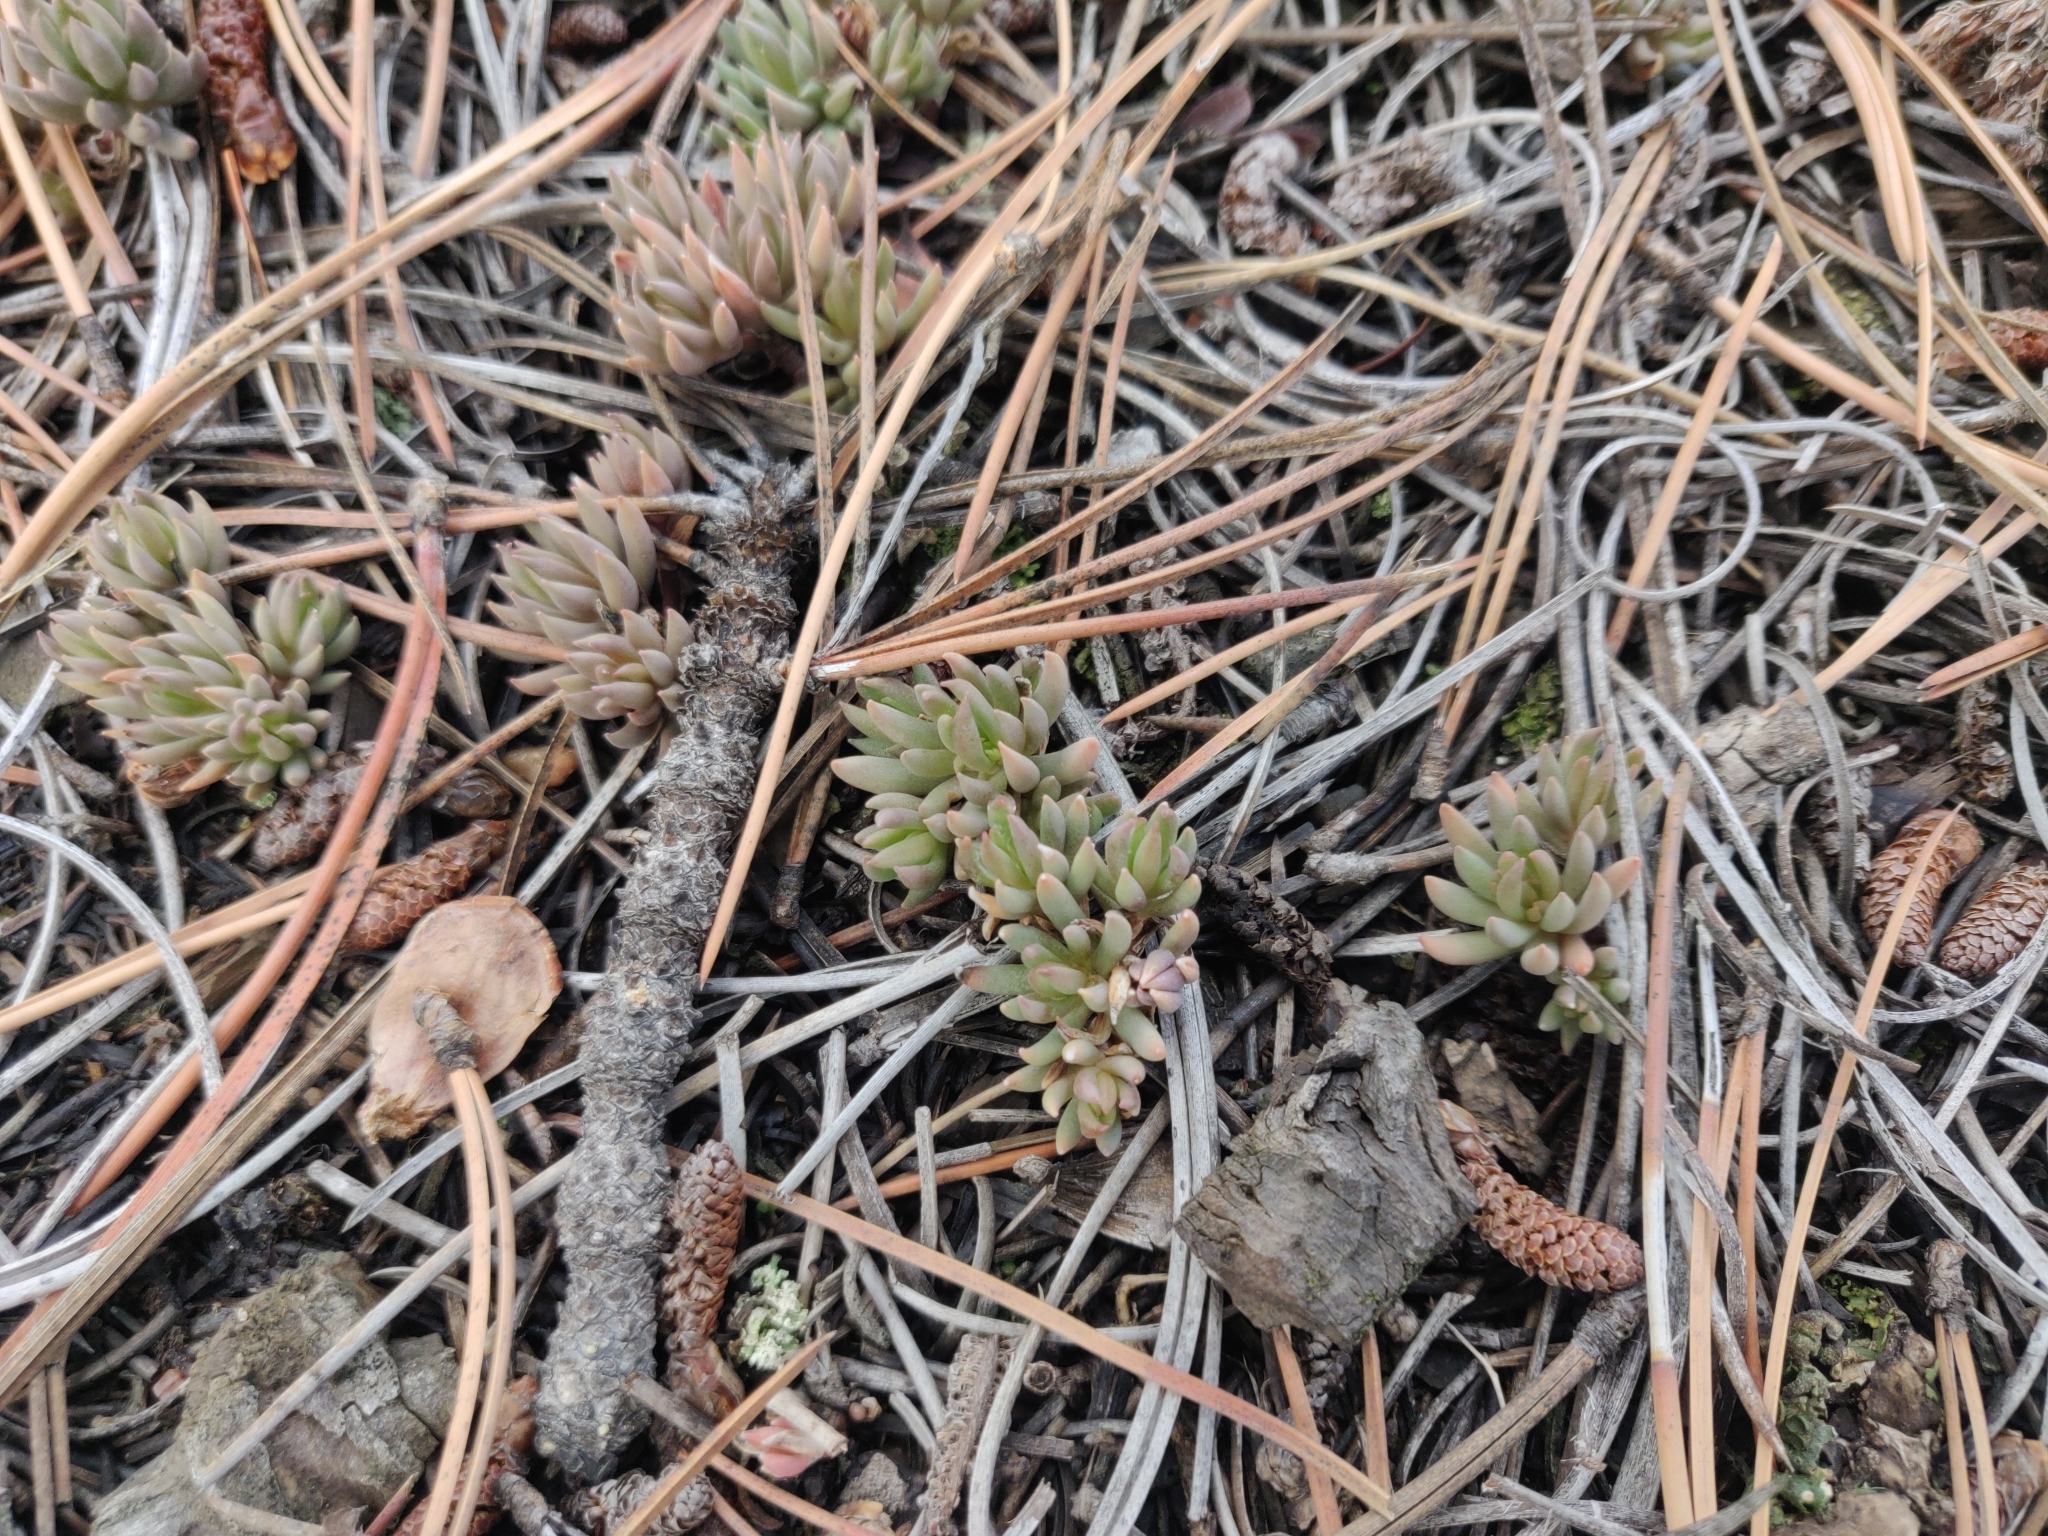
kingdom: Plantae
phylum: Tracheophyta
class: Magnoliopsida
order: Saxifragales
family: Crassulaceae
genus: Sedum
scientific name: Sedum lanceolatum
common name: Common stonecrop
